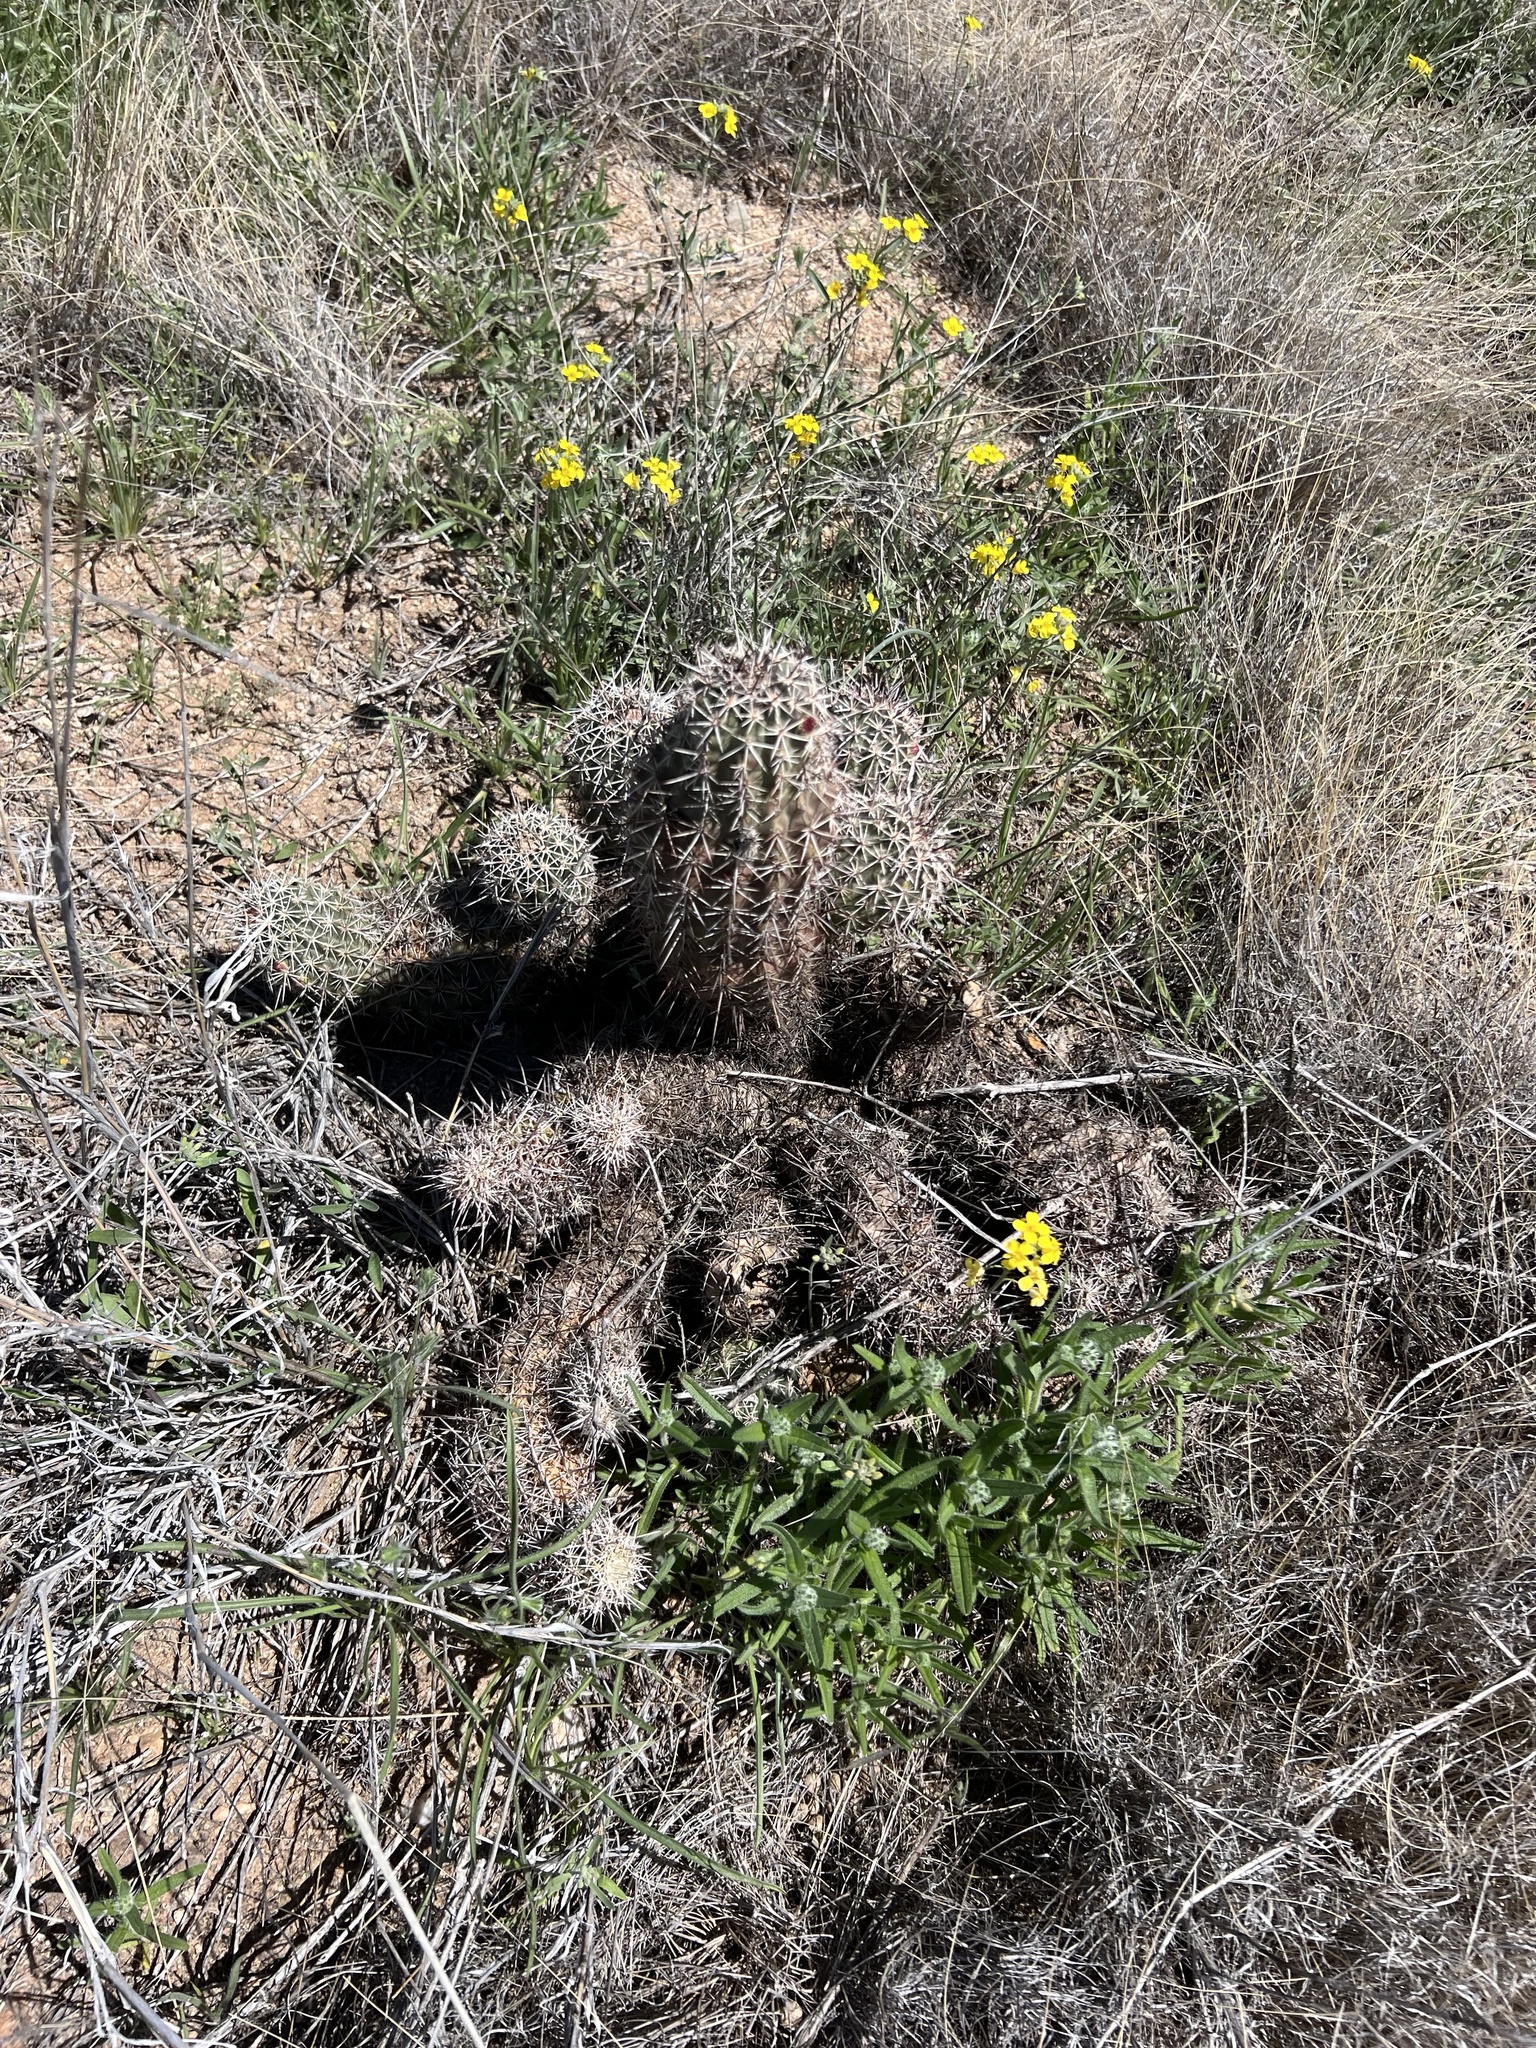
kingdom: Plantae
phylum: Tracheophyta
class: Magnoliopsida
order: Caryophyllales
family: Cactaceae
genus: Echinocereus
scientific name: Echinocereus fasciculatus
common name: Bundle hedgehog
